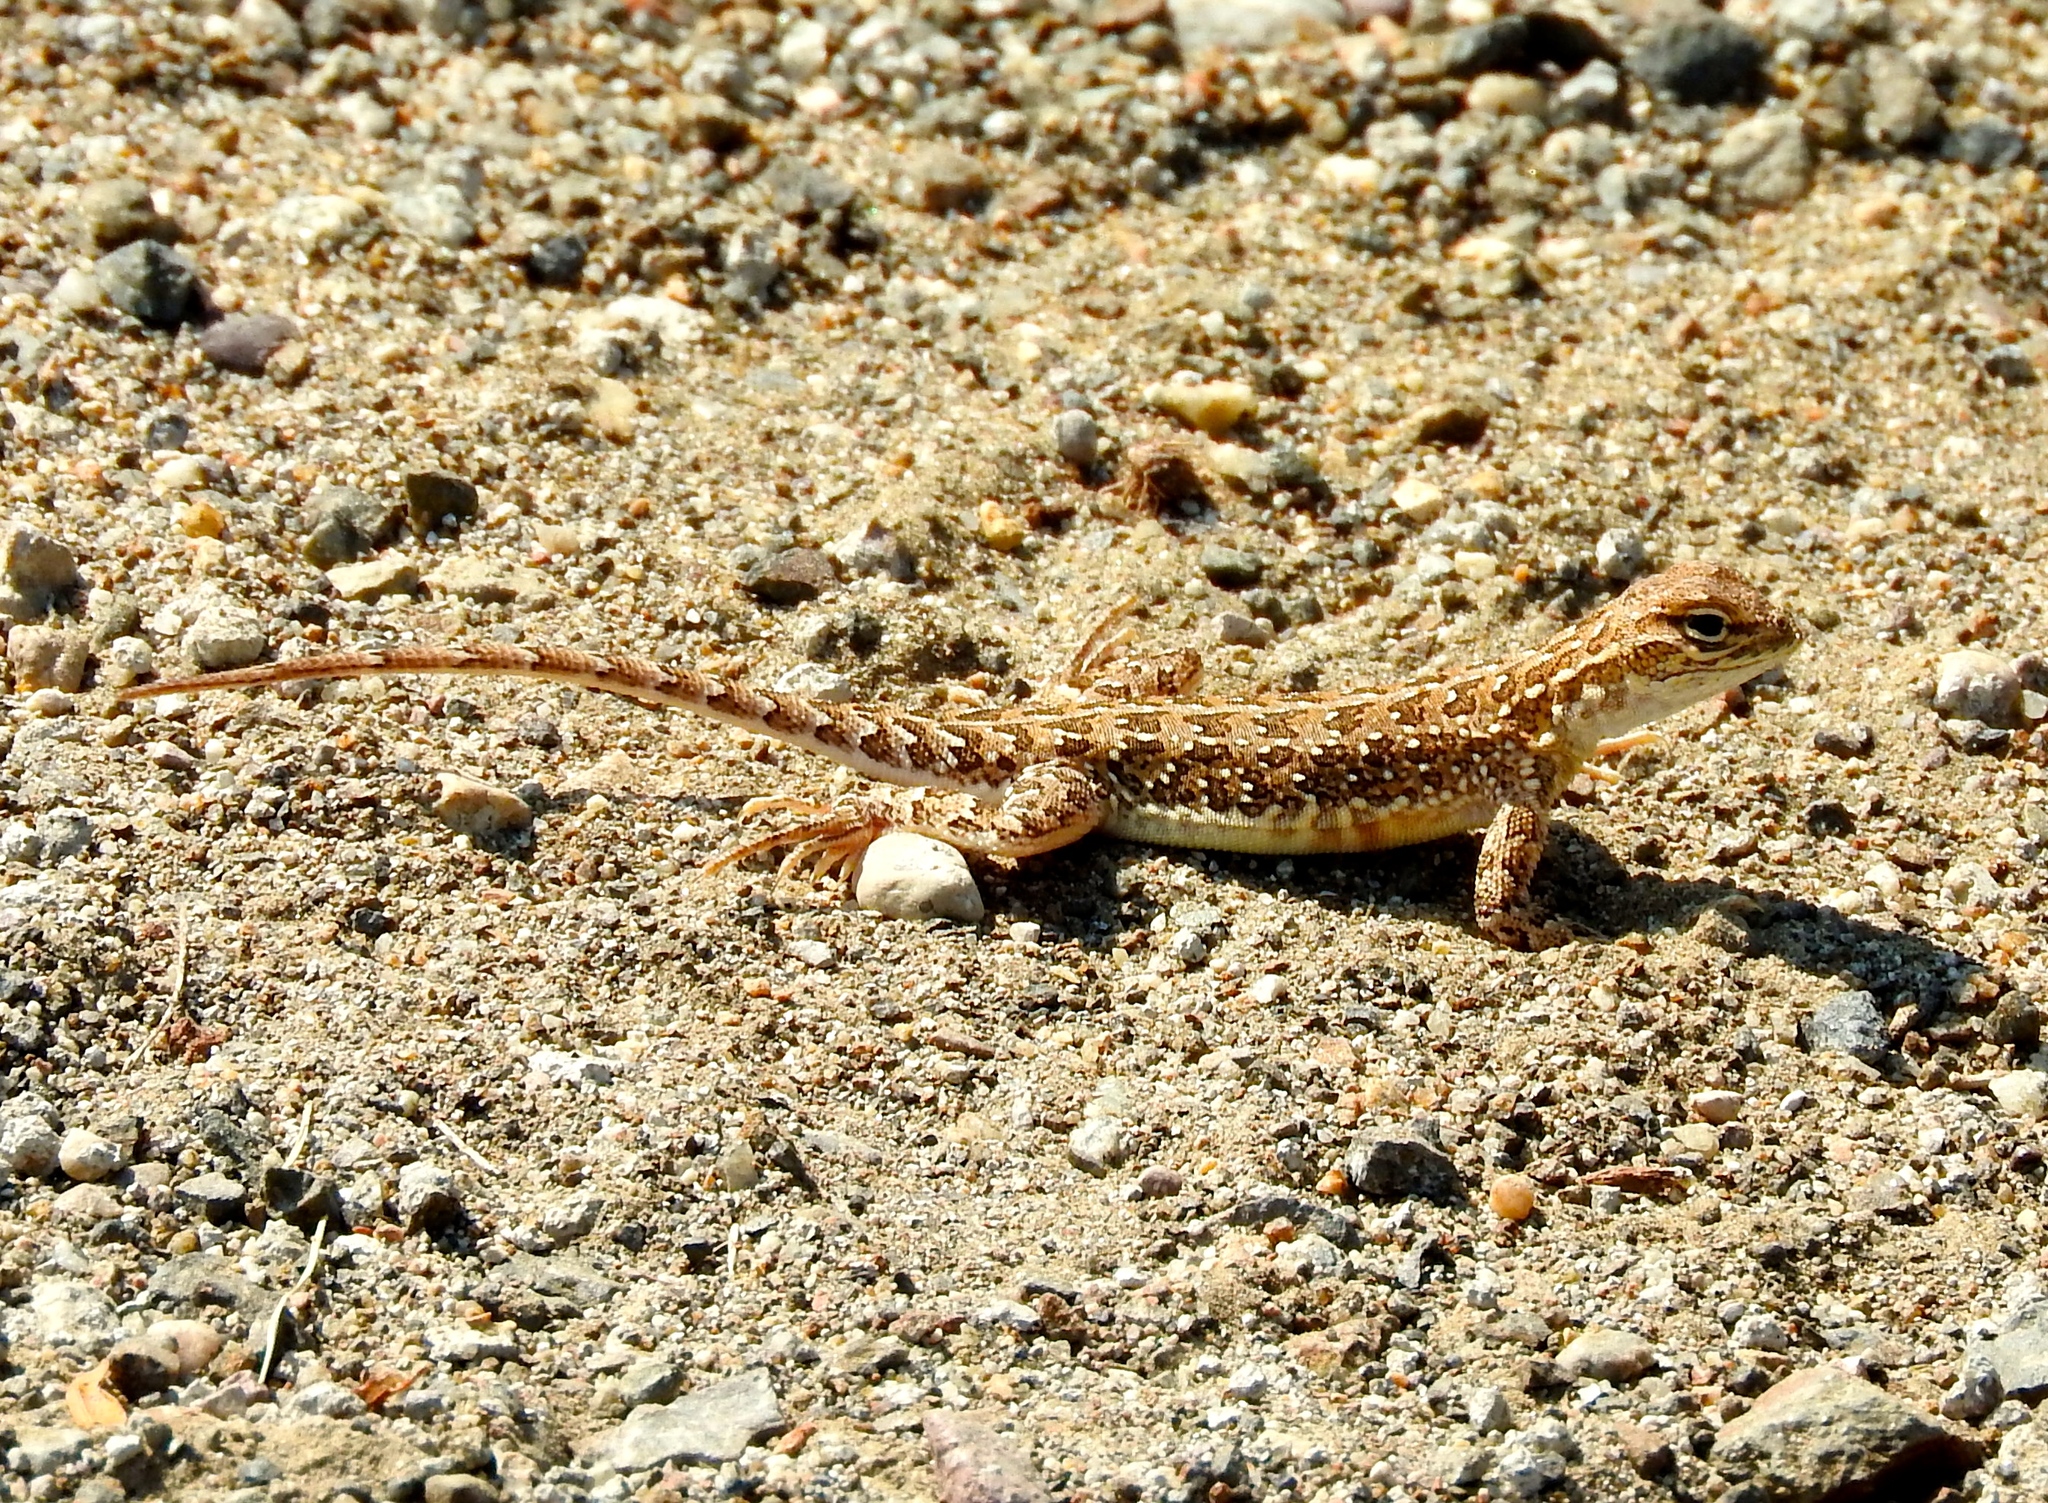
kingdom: Animalia
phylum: Chordata
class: Squamata
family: Phrynosomatidae
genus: Holbrookia
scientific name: Holbrookia elegans
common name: Elegant earless lizard
